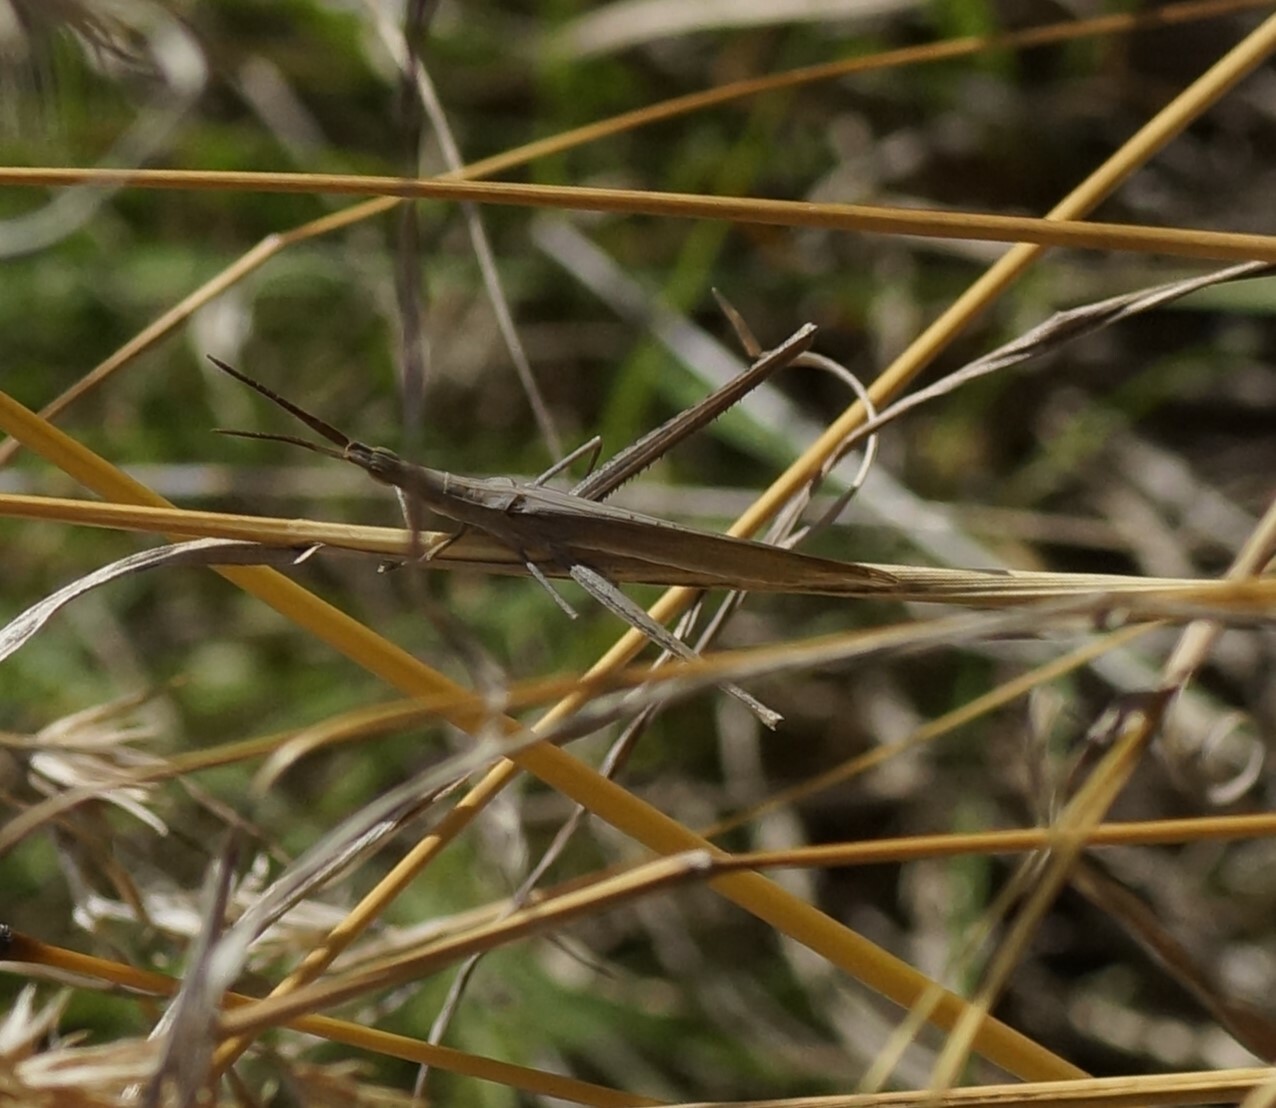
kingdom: Animalia
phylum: Arthropoda
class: Insecta
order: Orthoptera
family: Acrididae
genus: Acrida
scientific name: Acrida conica
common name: Giant green slantface
